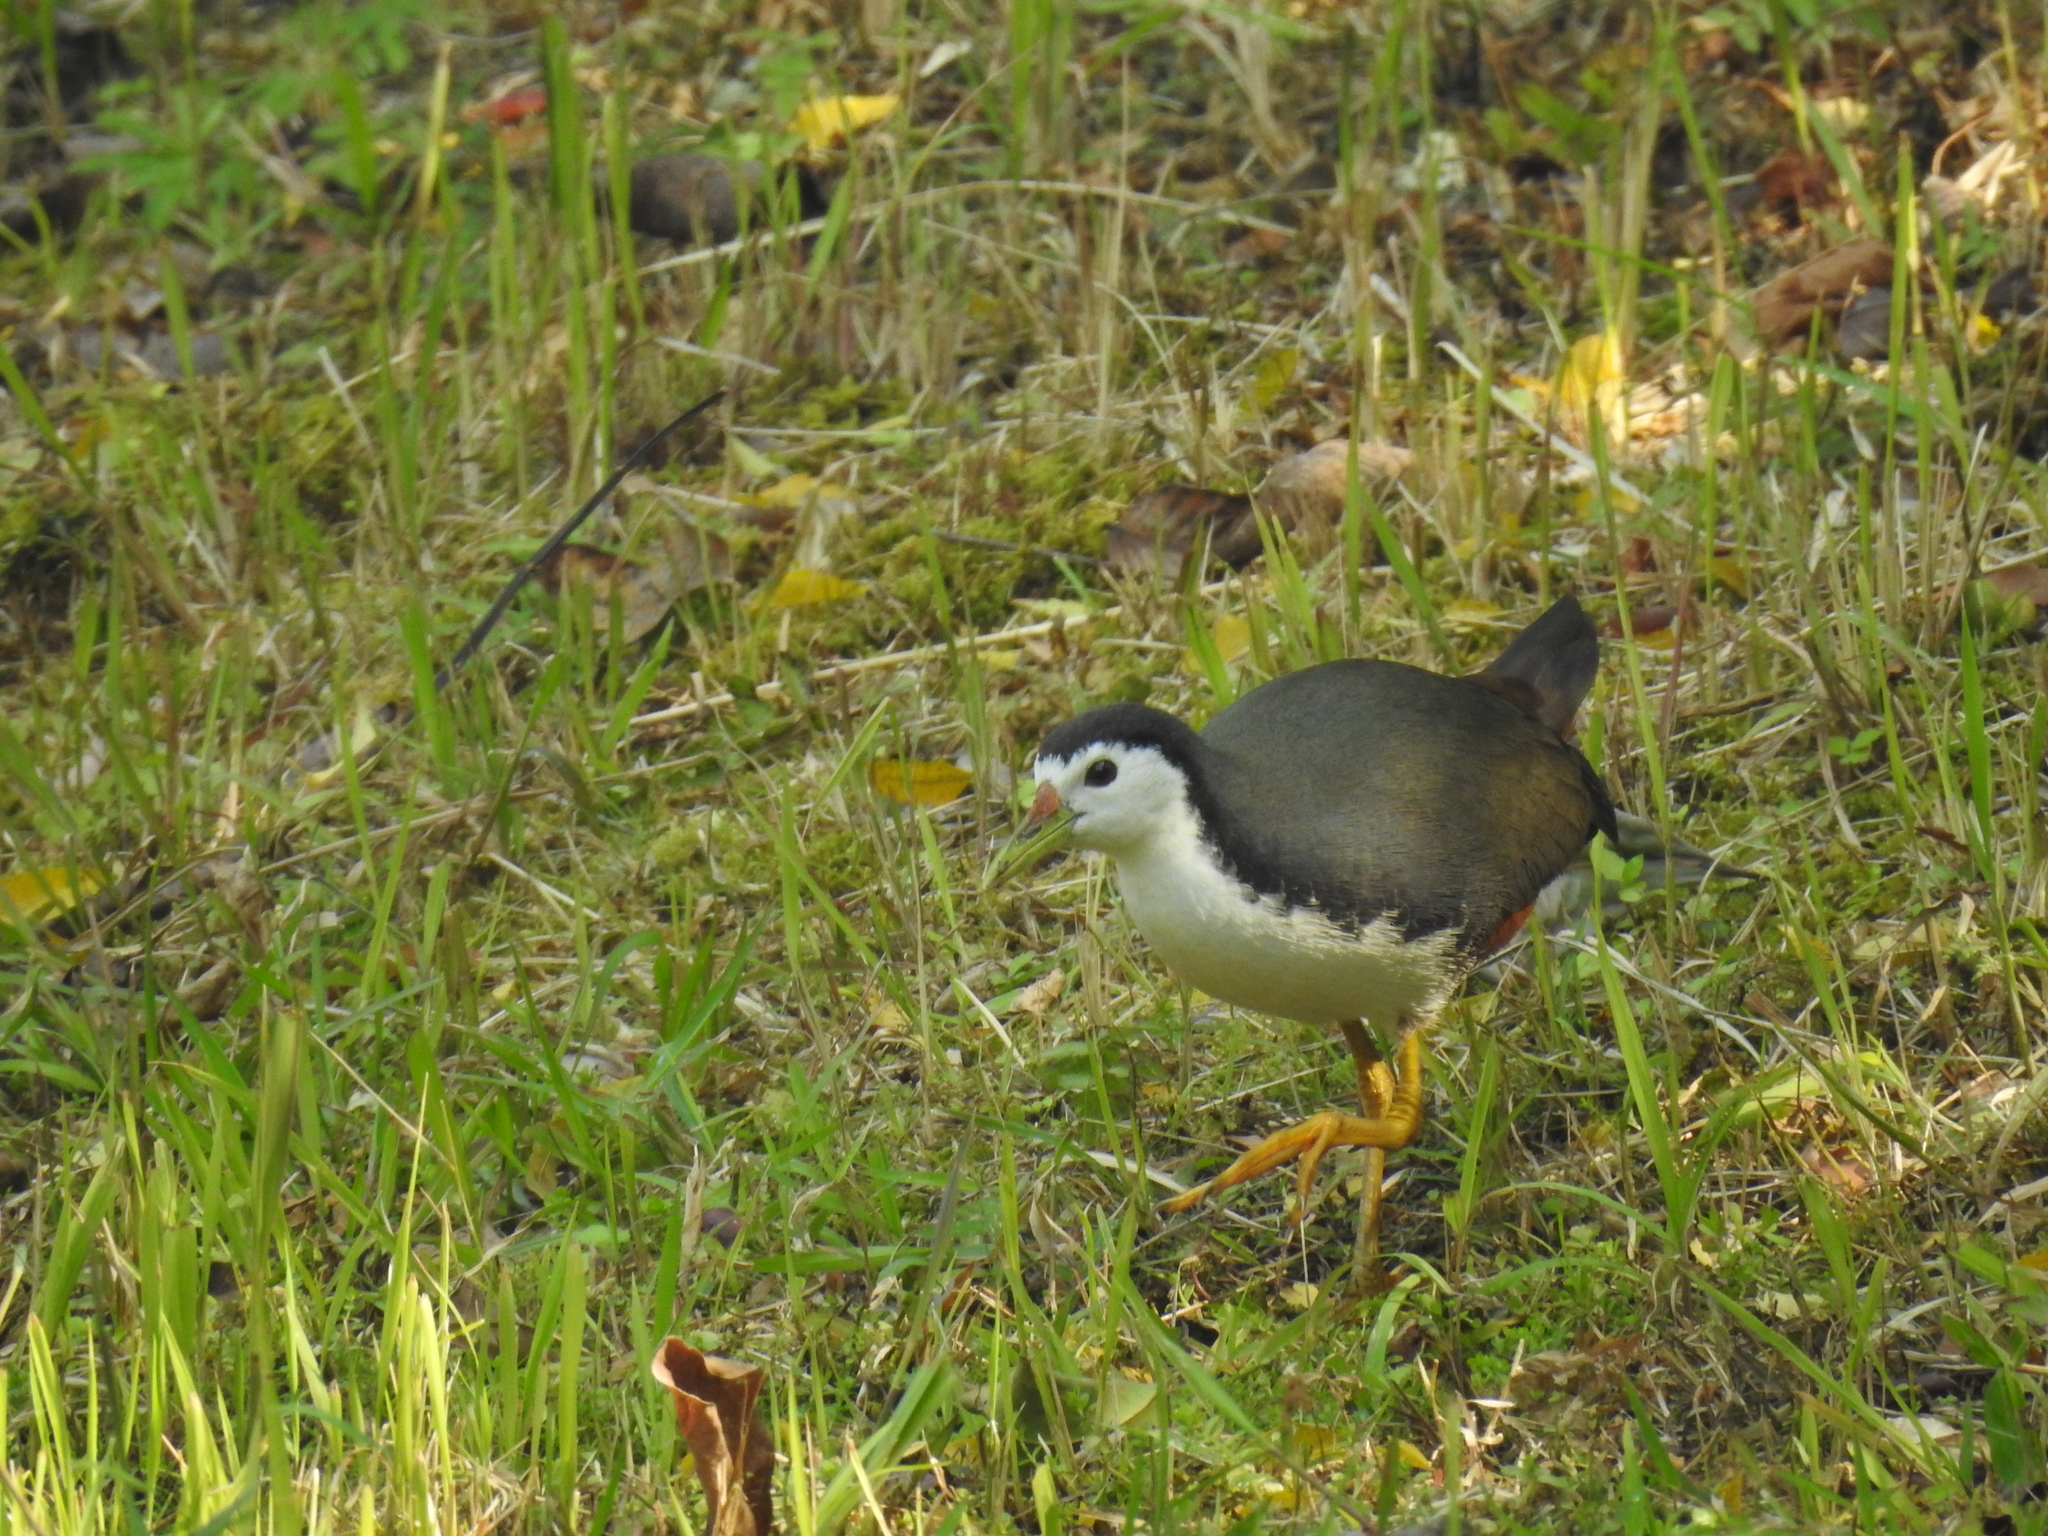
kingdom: Animalia
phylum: Chordata
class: Aves
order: Gruiformes
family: Rallidae
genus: Amaurornis
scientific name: Amaurornis phoenicurus
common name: White-breasted waterhen
